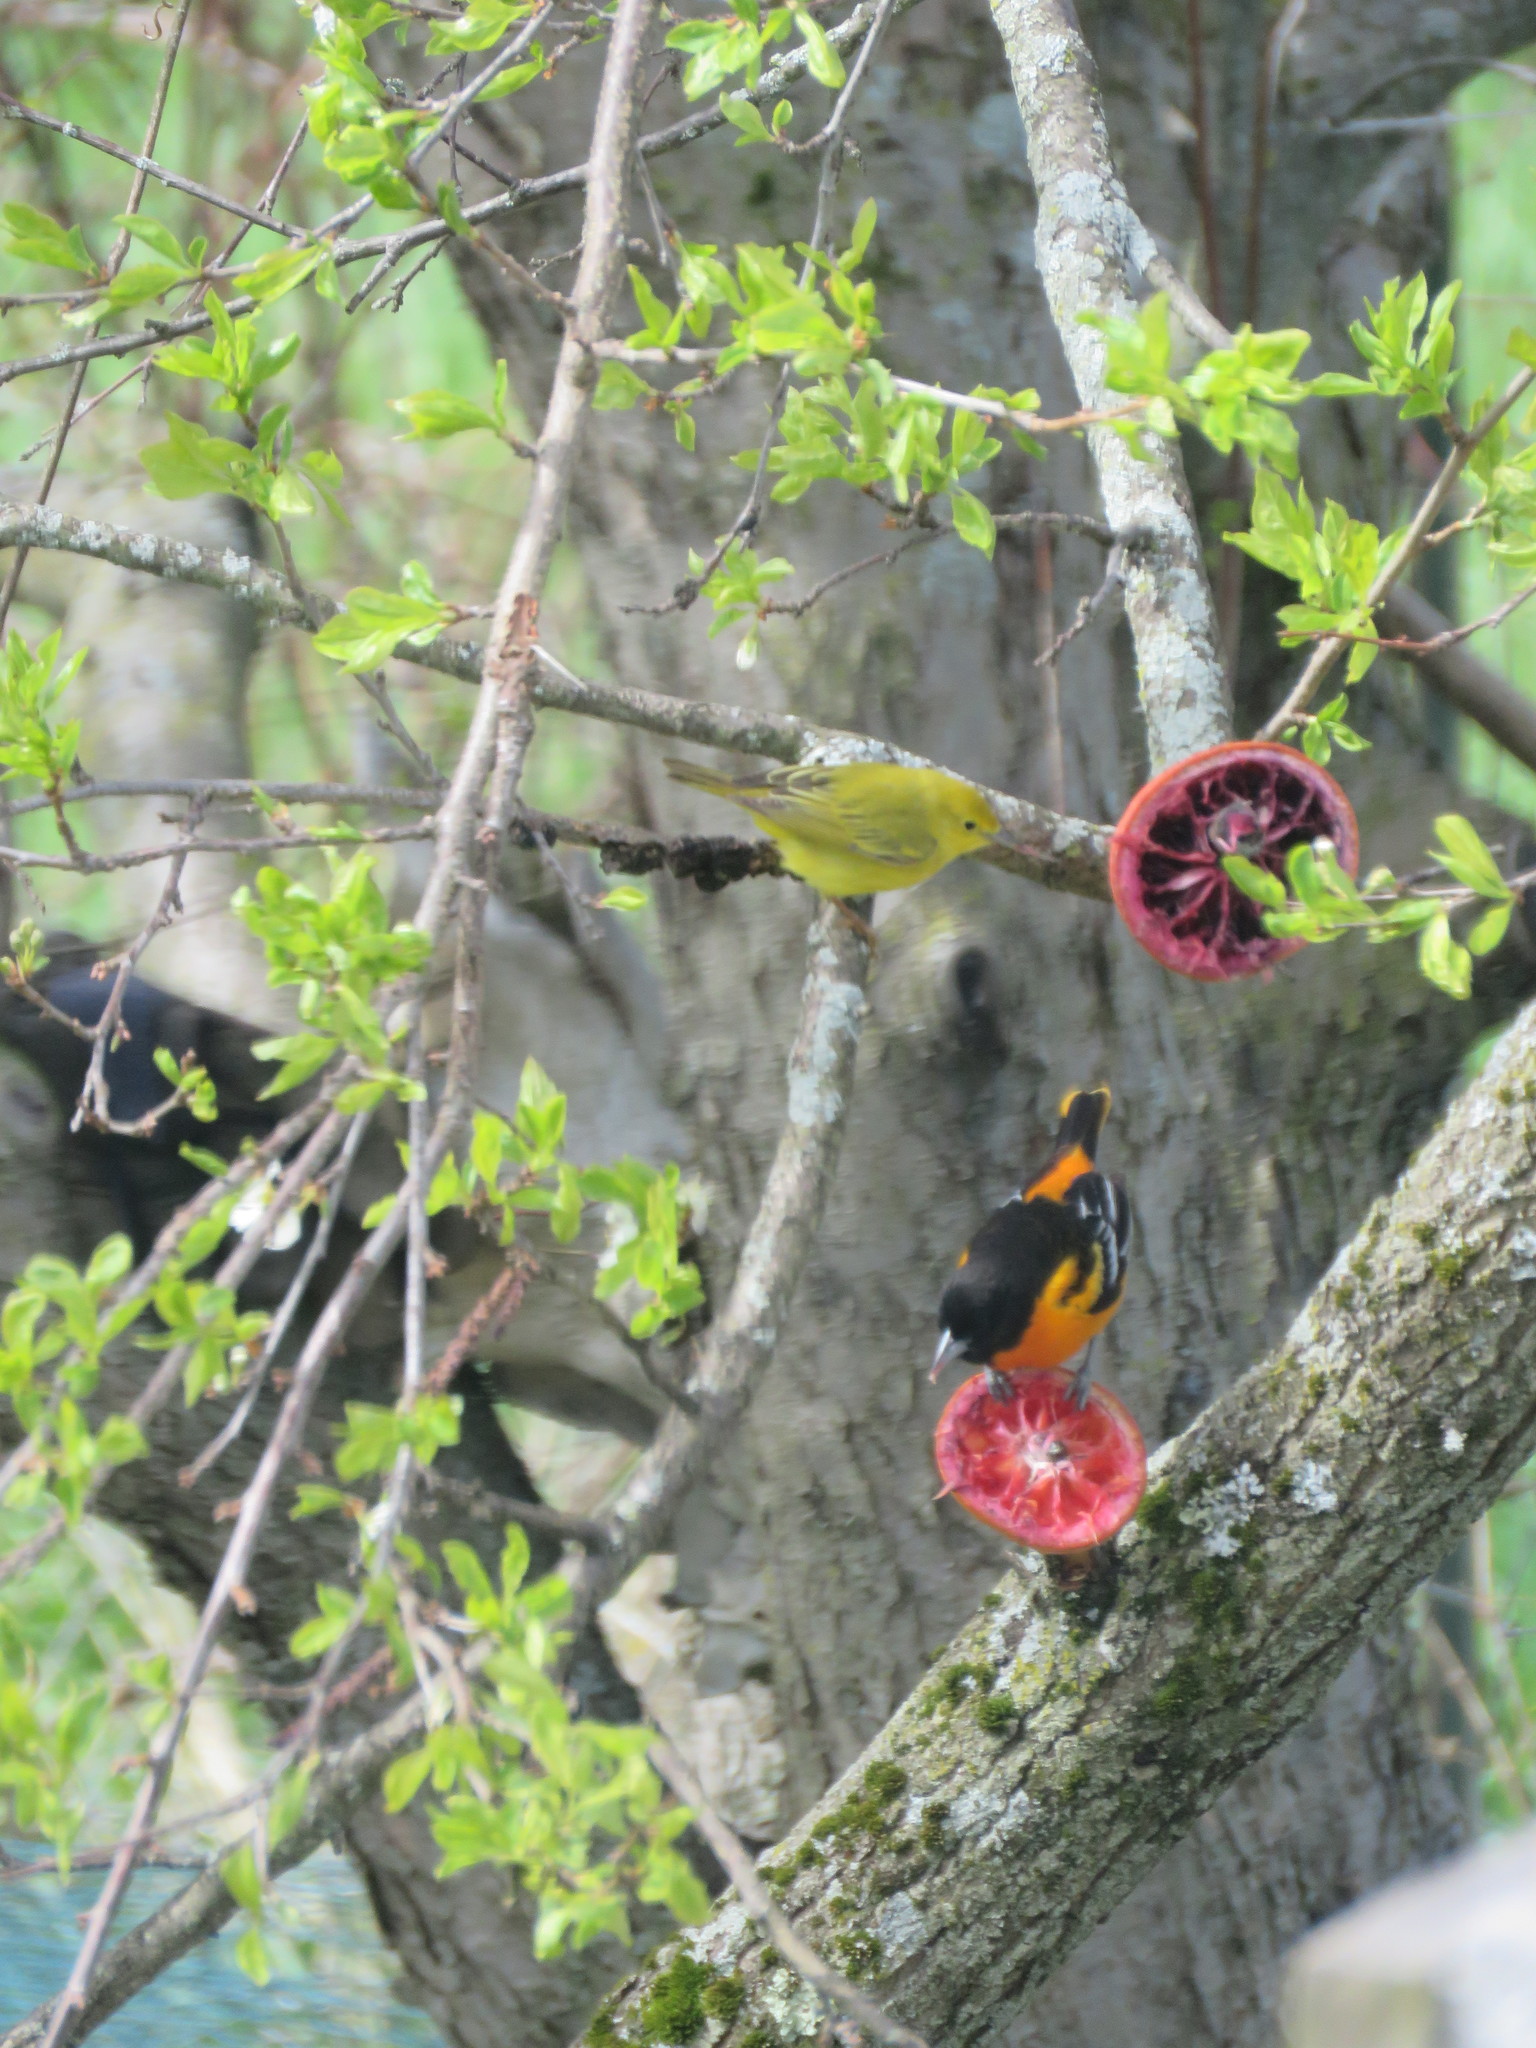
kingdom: Animalia
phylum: Chordata
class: Aves
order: Passeriformes
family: Parulidae
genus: Setophaga
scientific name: Setophaga petechia
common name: Yellow warbler
